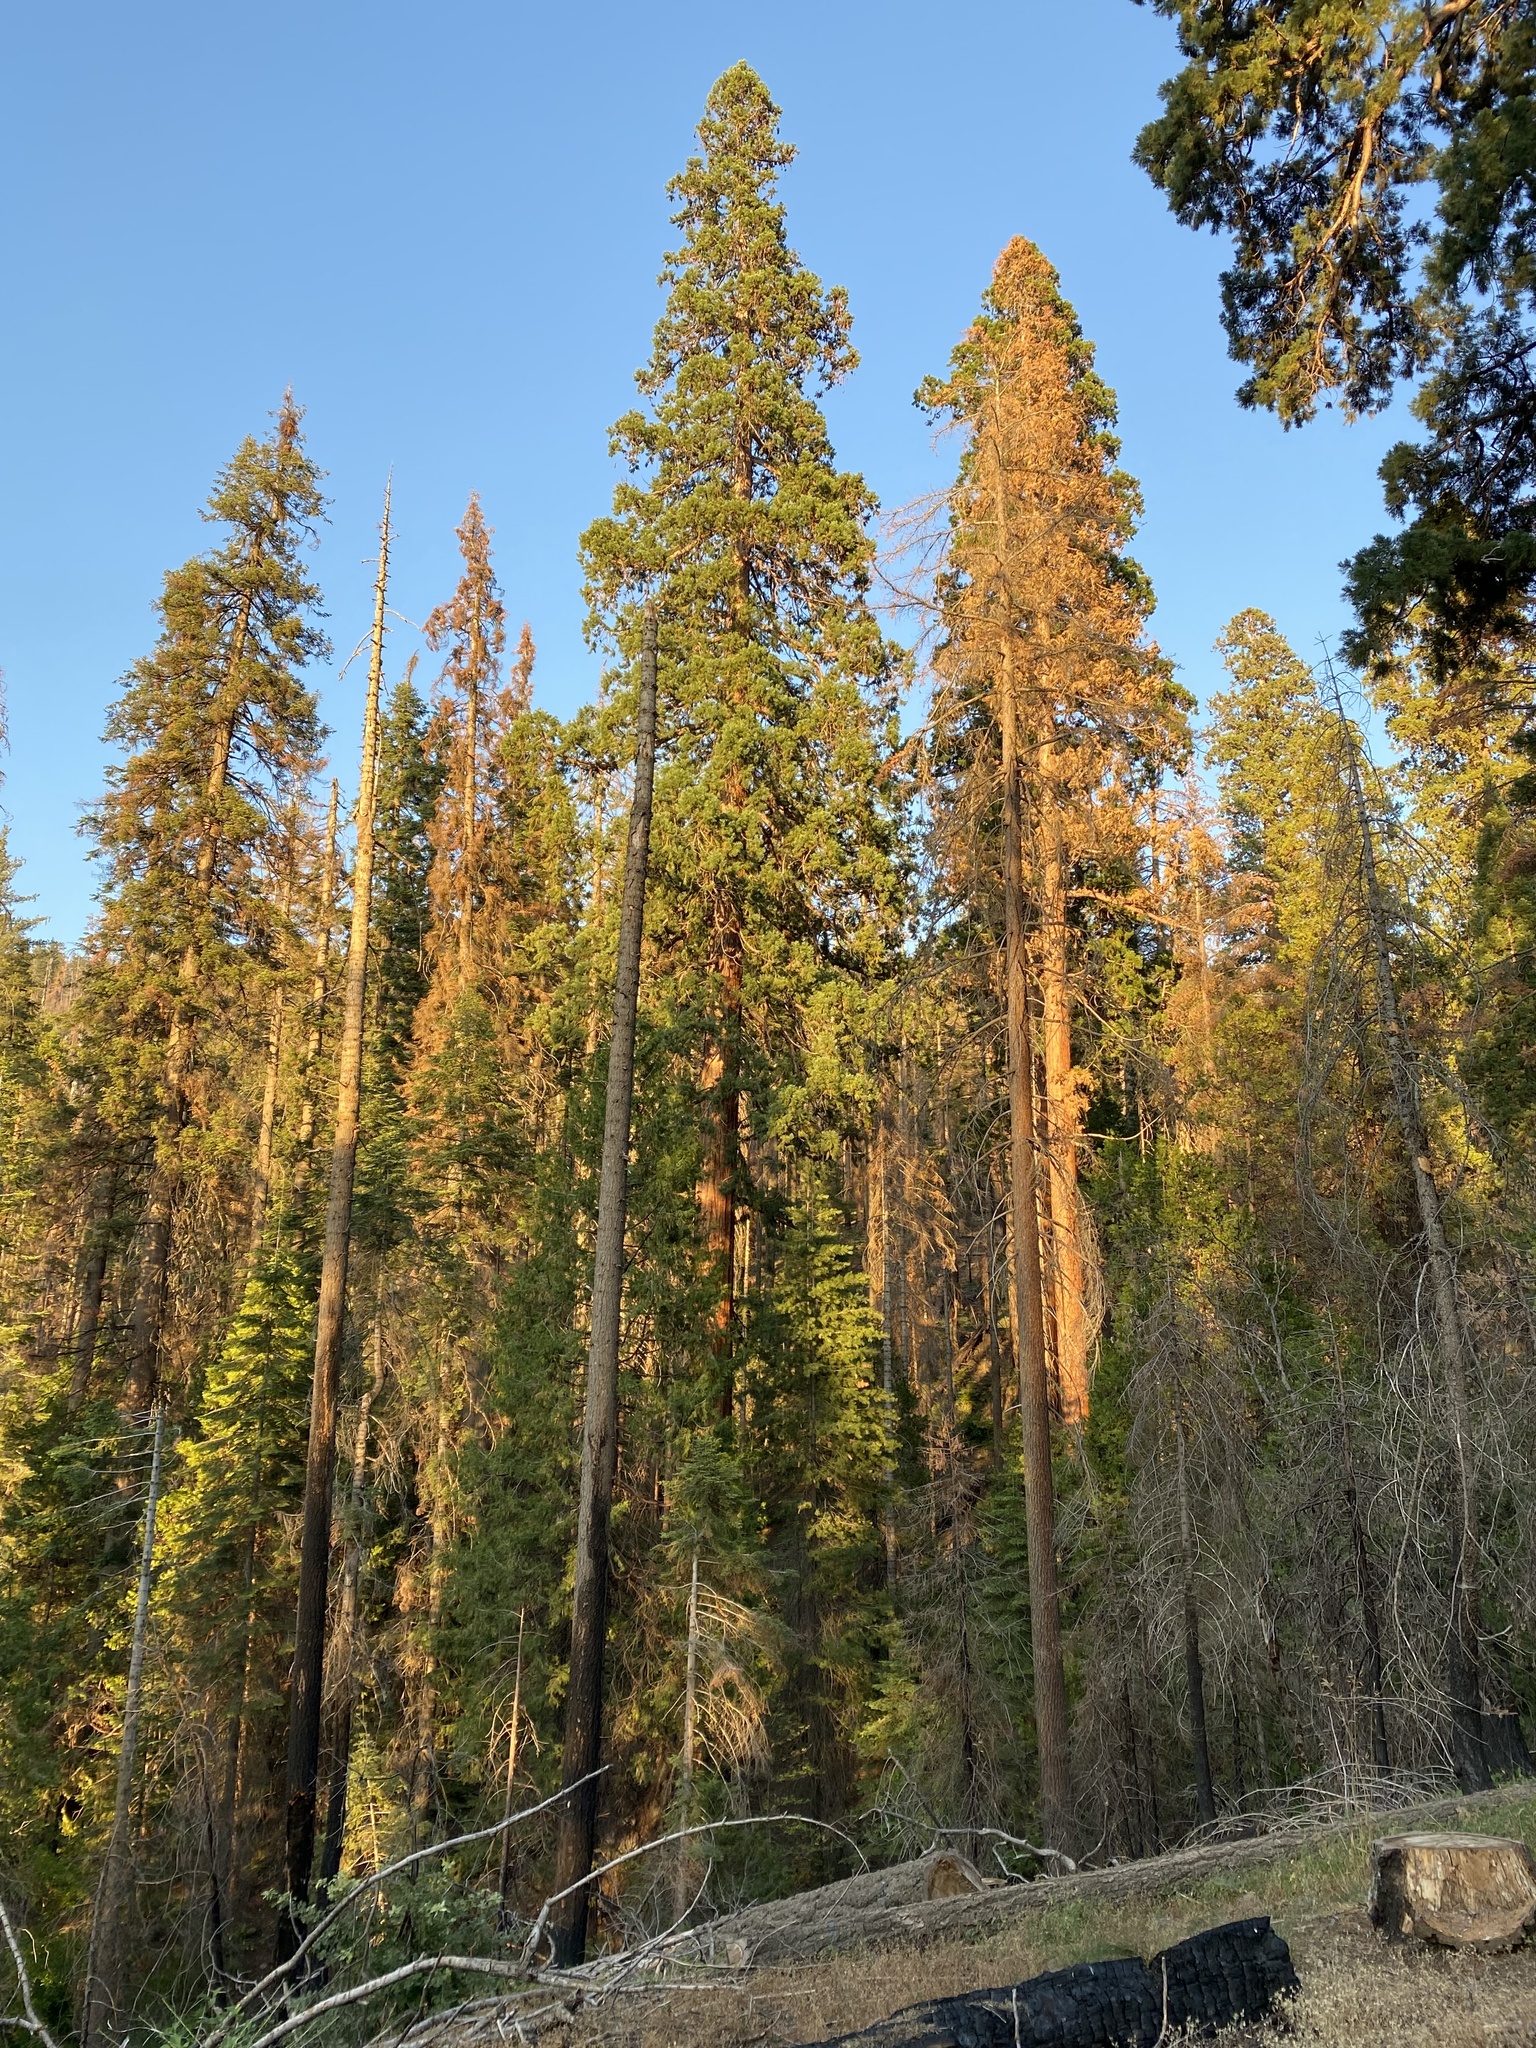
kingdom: Plantae
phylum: Tracheophyta
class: Pinopsida
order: Pinales
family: Cupressaceae
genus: Sequoiadendron
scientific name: Sequoiadendron giganteum
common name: Wellingtonia
